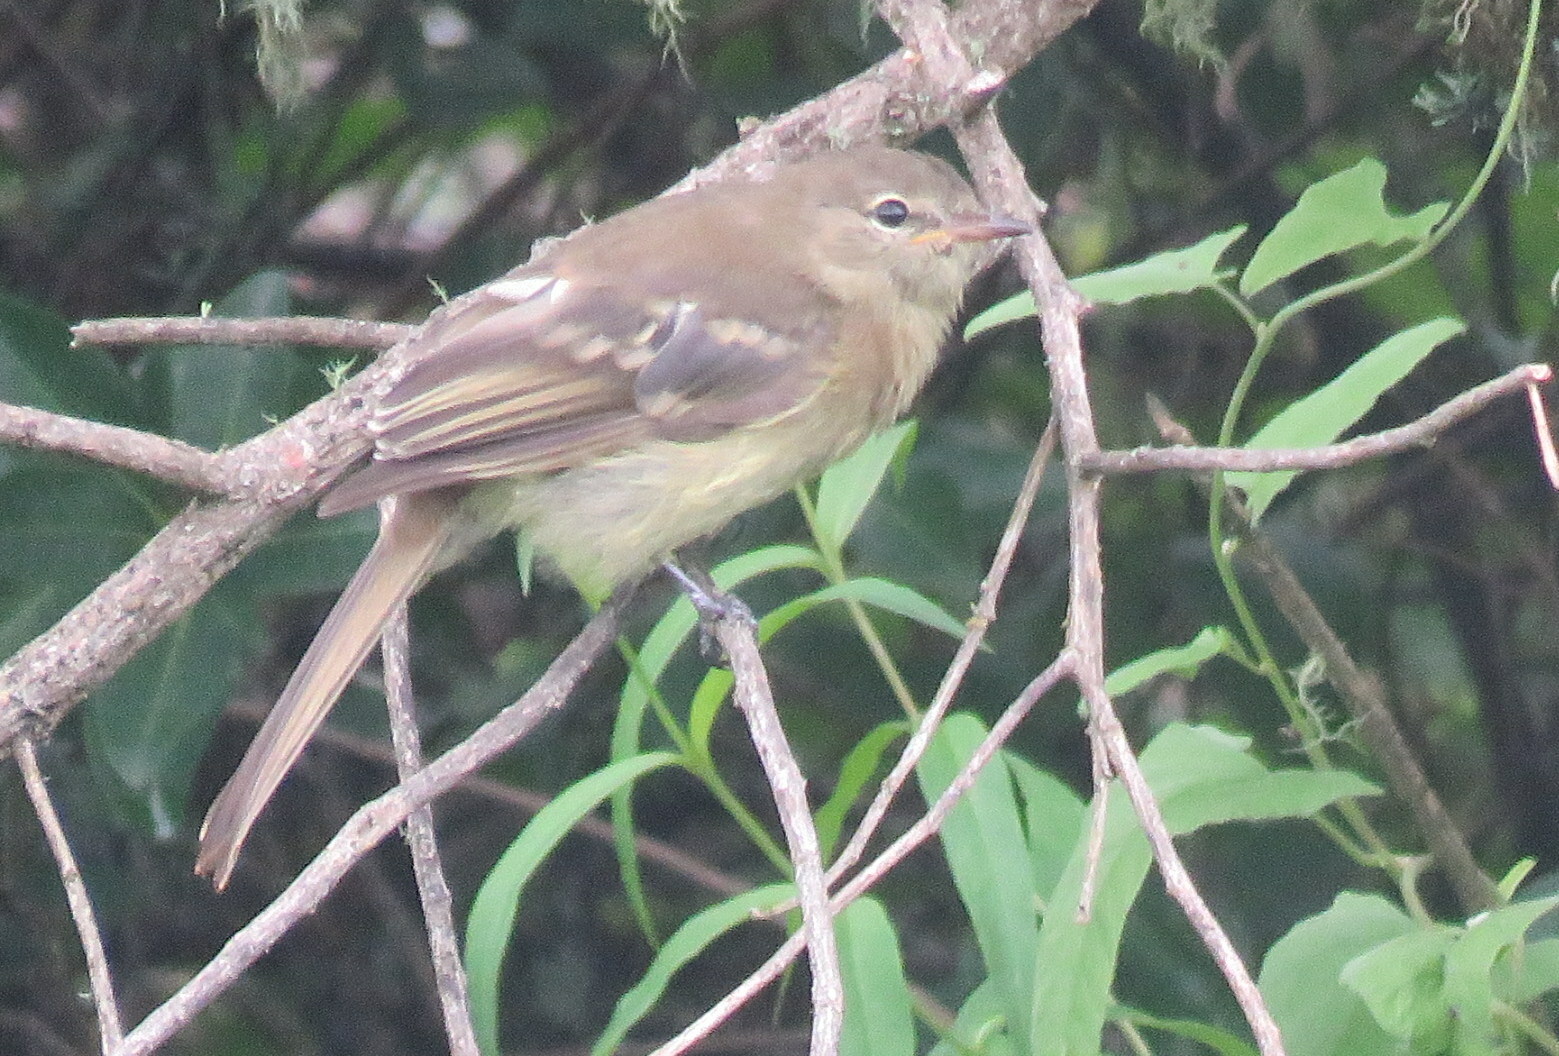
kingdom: Animalia
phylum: Chordata
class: Aves
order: Passeriformes
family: Tyrannidae
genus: Elaenia
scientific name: Elaenia obscura
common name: Highland elaenia
